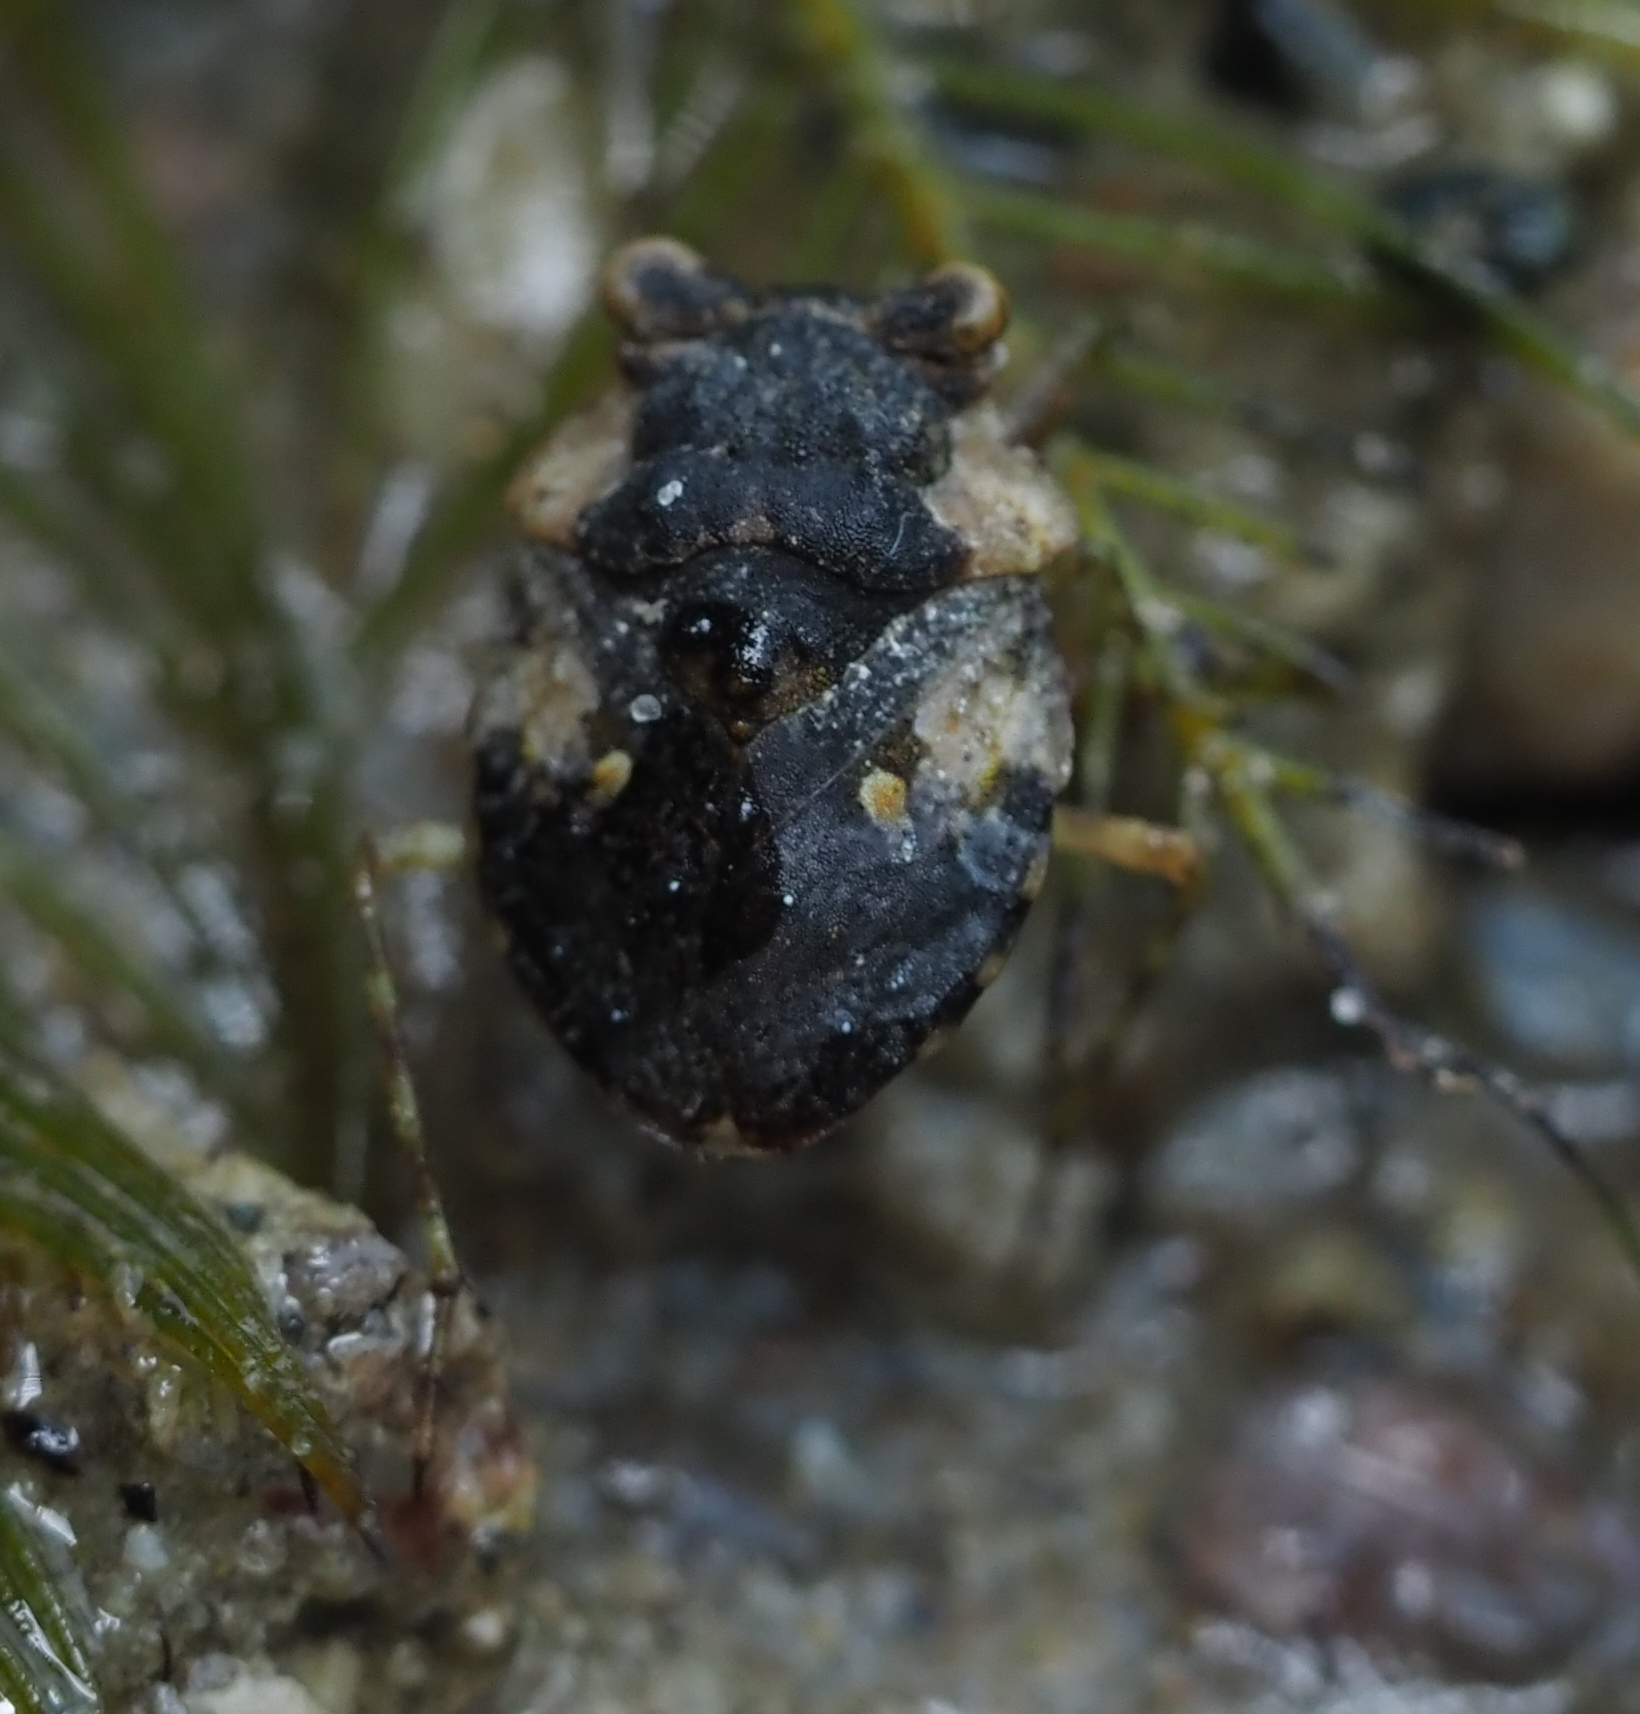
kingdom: Animalia
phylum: Arthropoda
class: Insecta
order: Hemiptera
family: Gelastocoridae
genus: Gelastocoris
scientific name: Gelastocoris oculatus
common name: Toad bug
